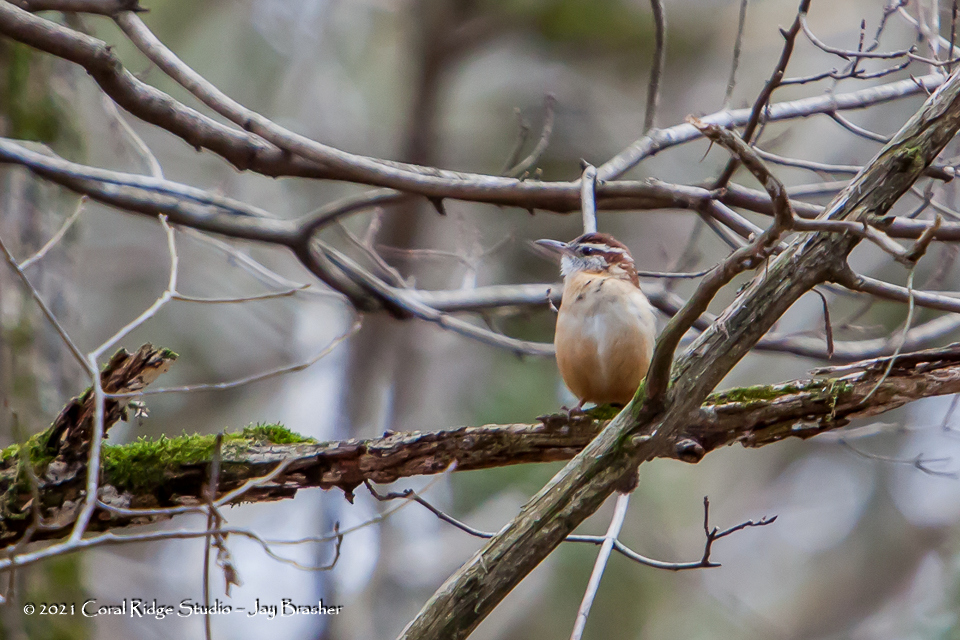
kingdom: Animalia
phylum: Chordata
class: Aves
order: Passeriformes
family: Troglodytidae
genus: Thryothorus
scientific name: Thryothorus ludovicianus
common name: Carolina wren
